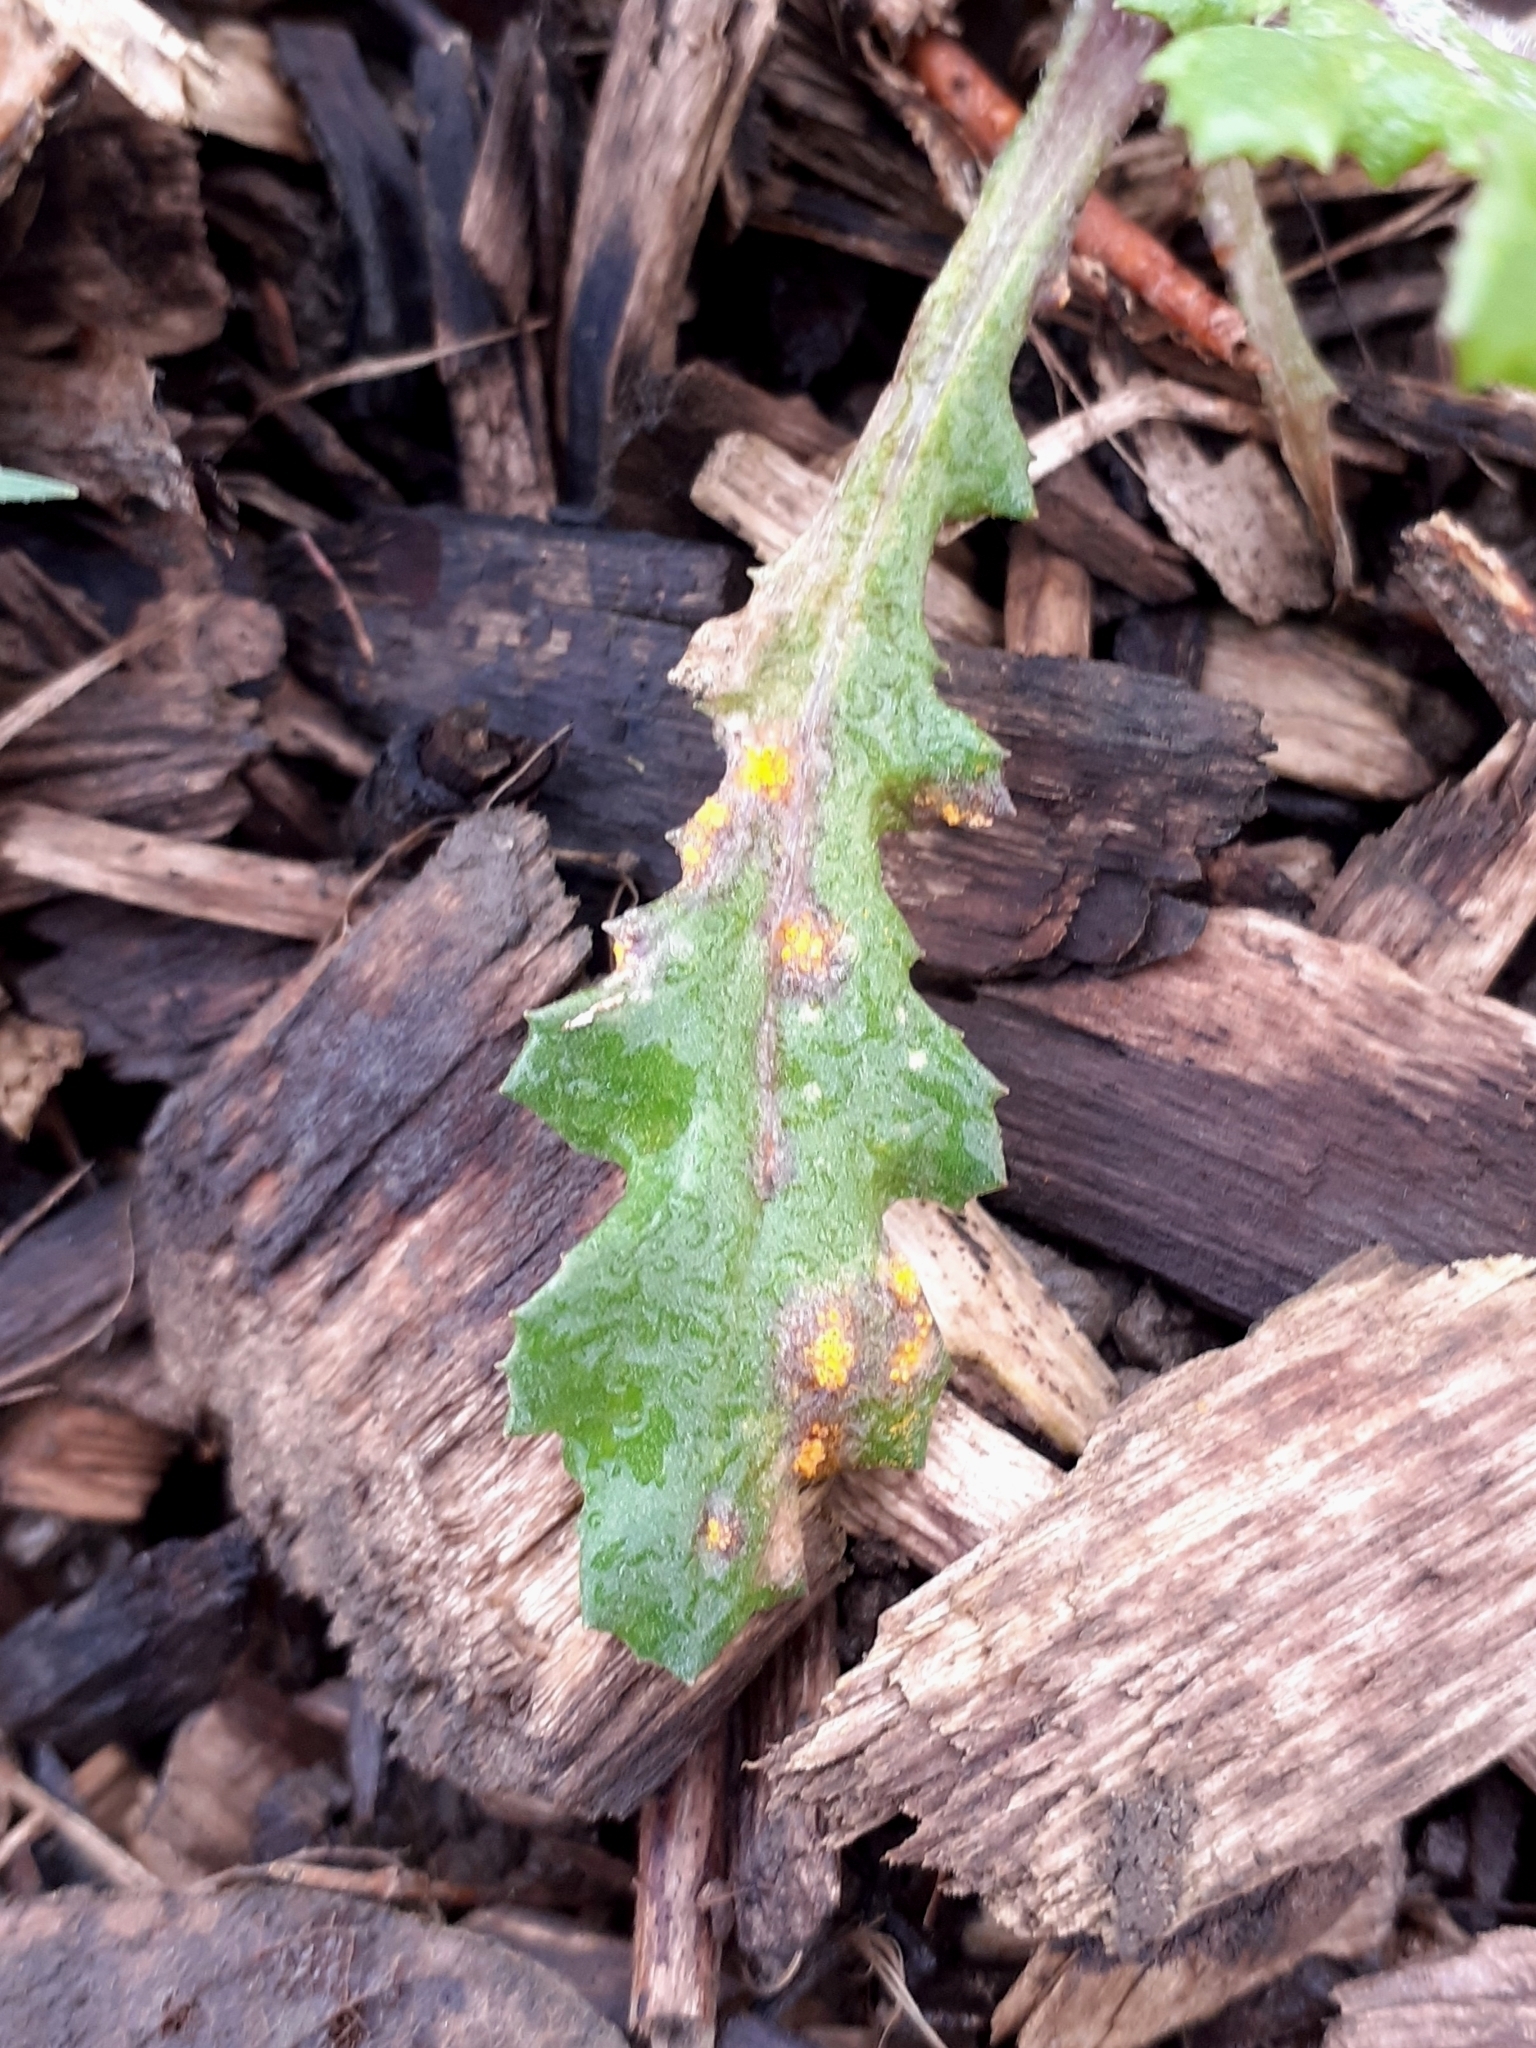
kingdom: Fungi
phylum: Basidiomycota
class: Pucciniomycetes
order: Pucciniales
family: Pucciniaceae
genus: Puccinia
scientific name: Puccinia lagenophorae
